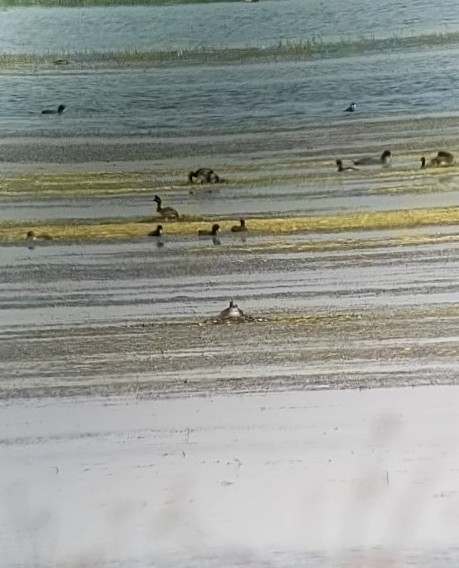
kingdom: Animalia
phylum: Chordata
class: Aves
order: Podicipediformes
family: Podicipedidae
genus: Podiceps
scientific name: Podiceps nigricollis
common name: Black-necked grebe
